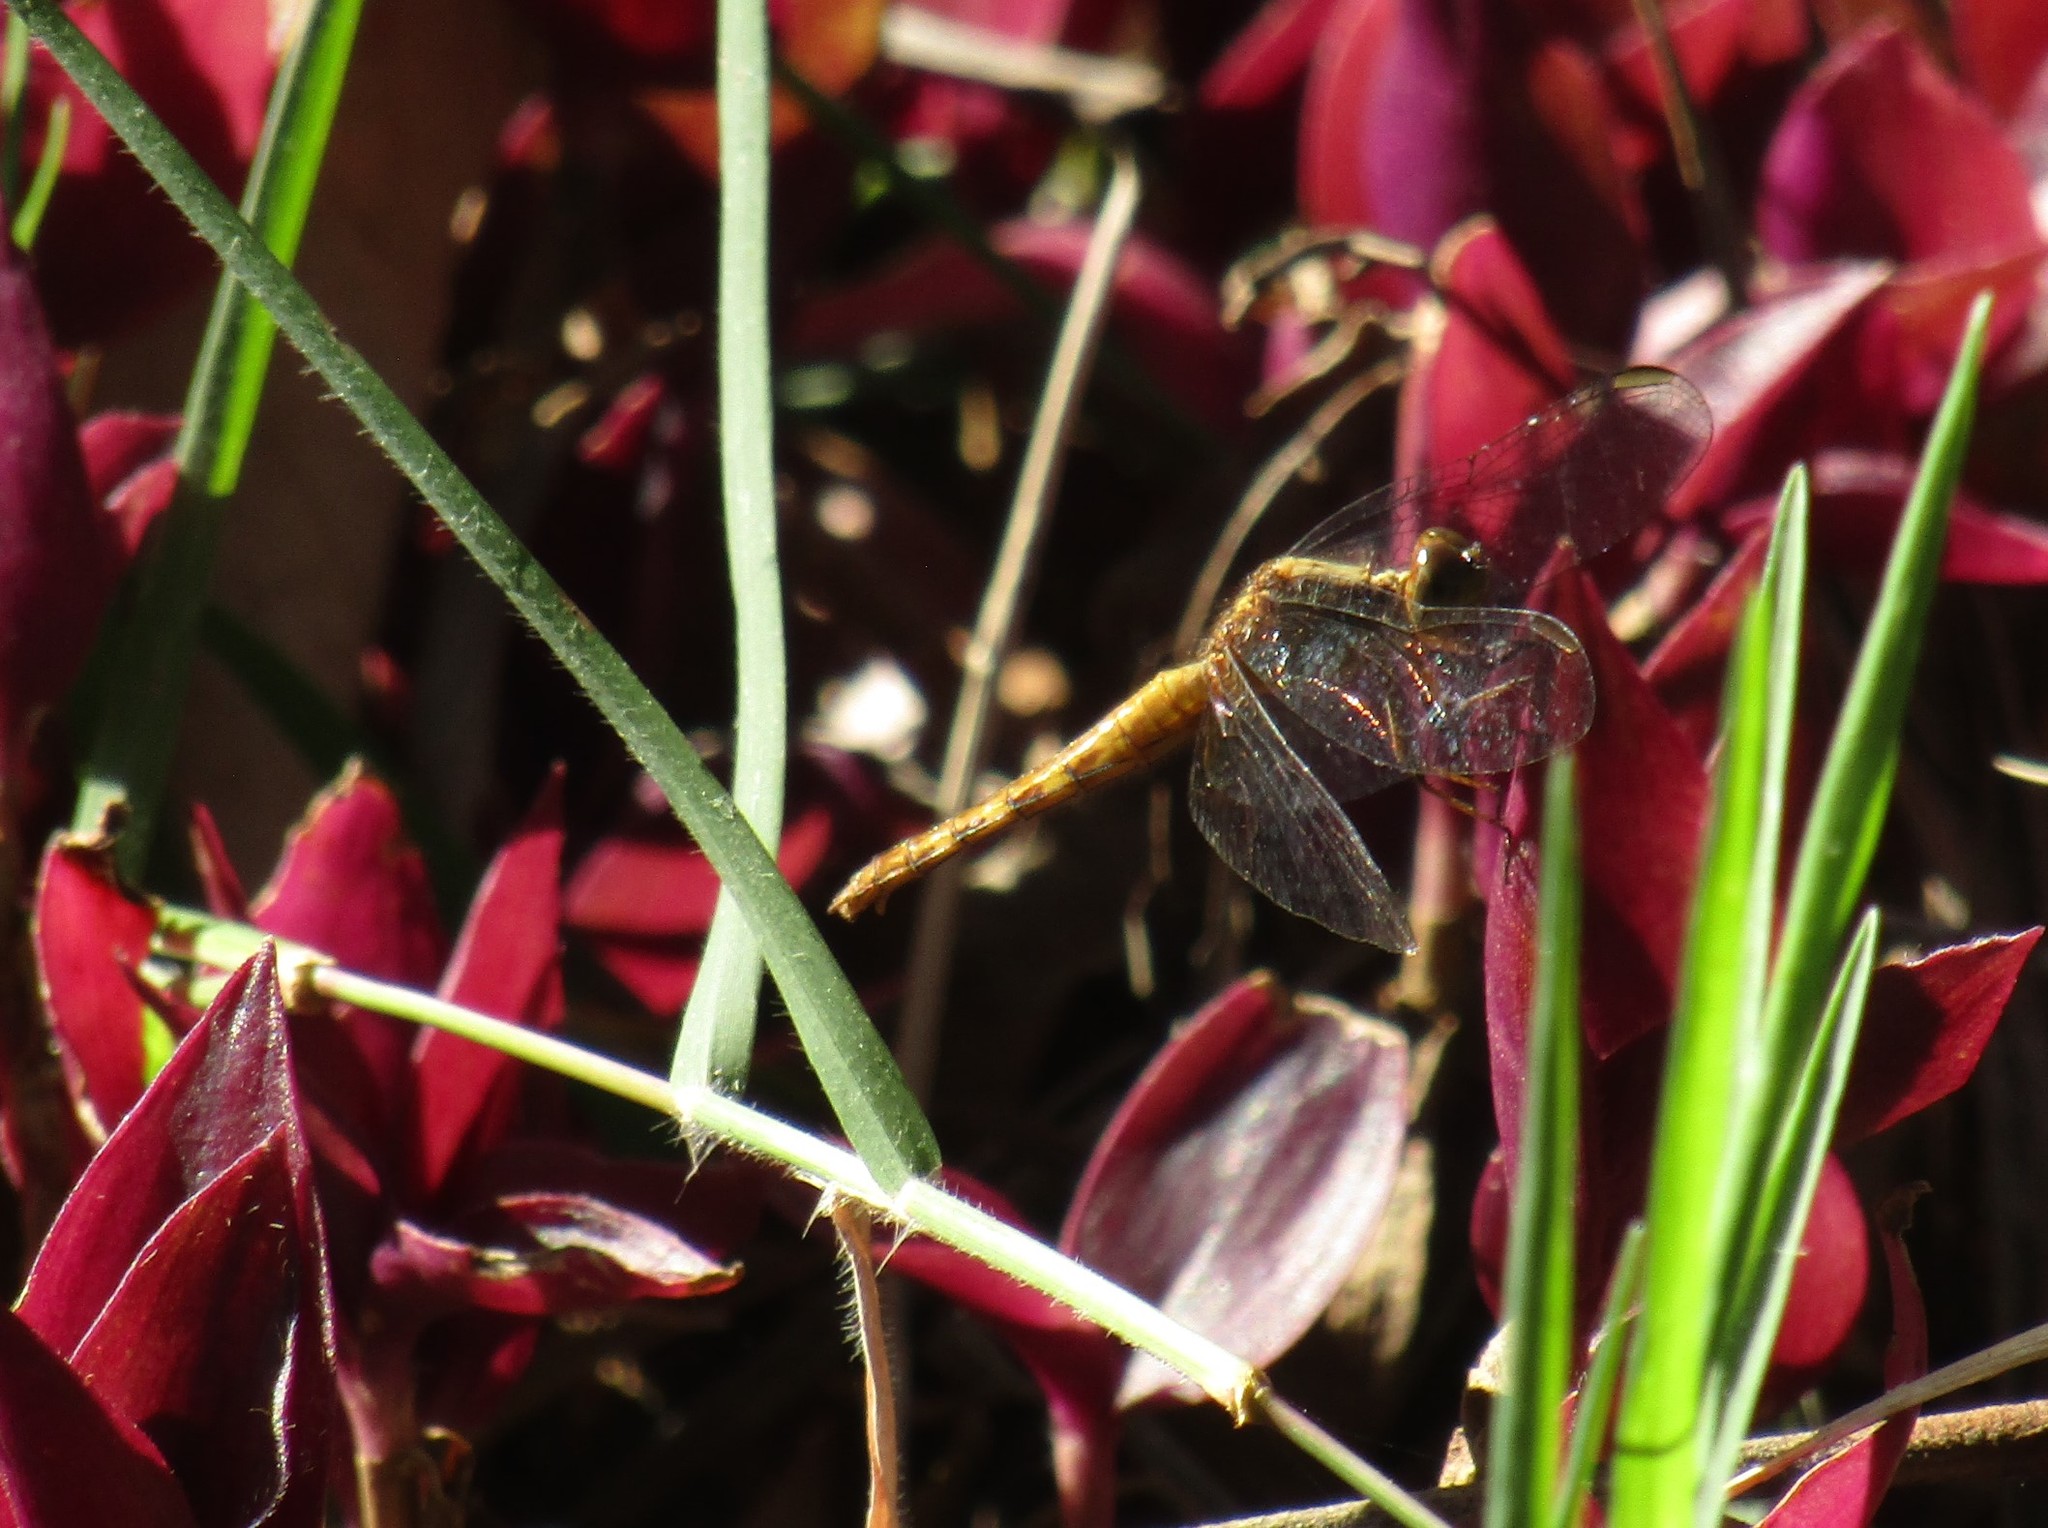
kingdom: Animalia
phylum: Arthropoda
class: Insecta
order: Odonata
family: Libellulidae
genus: Erythrodiplax
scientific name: Erythrodiplax melanorubra
